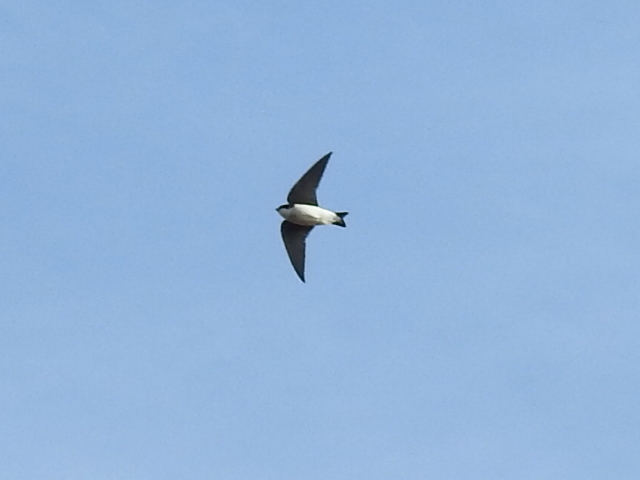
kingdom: Animalia
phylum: Chordata
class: Aves
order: Passeriformes
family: Hirundinidae
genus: Tachycineta
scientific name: Tachycineta bicolor
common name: Tree swallow
